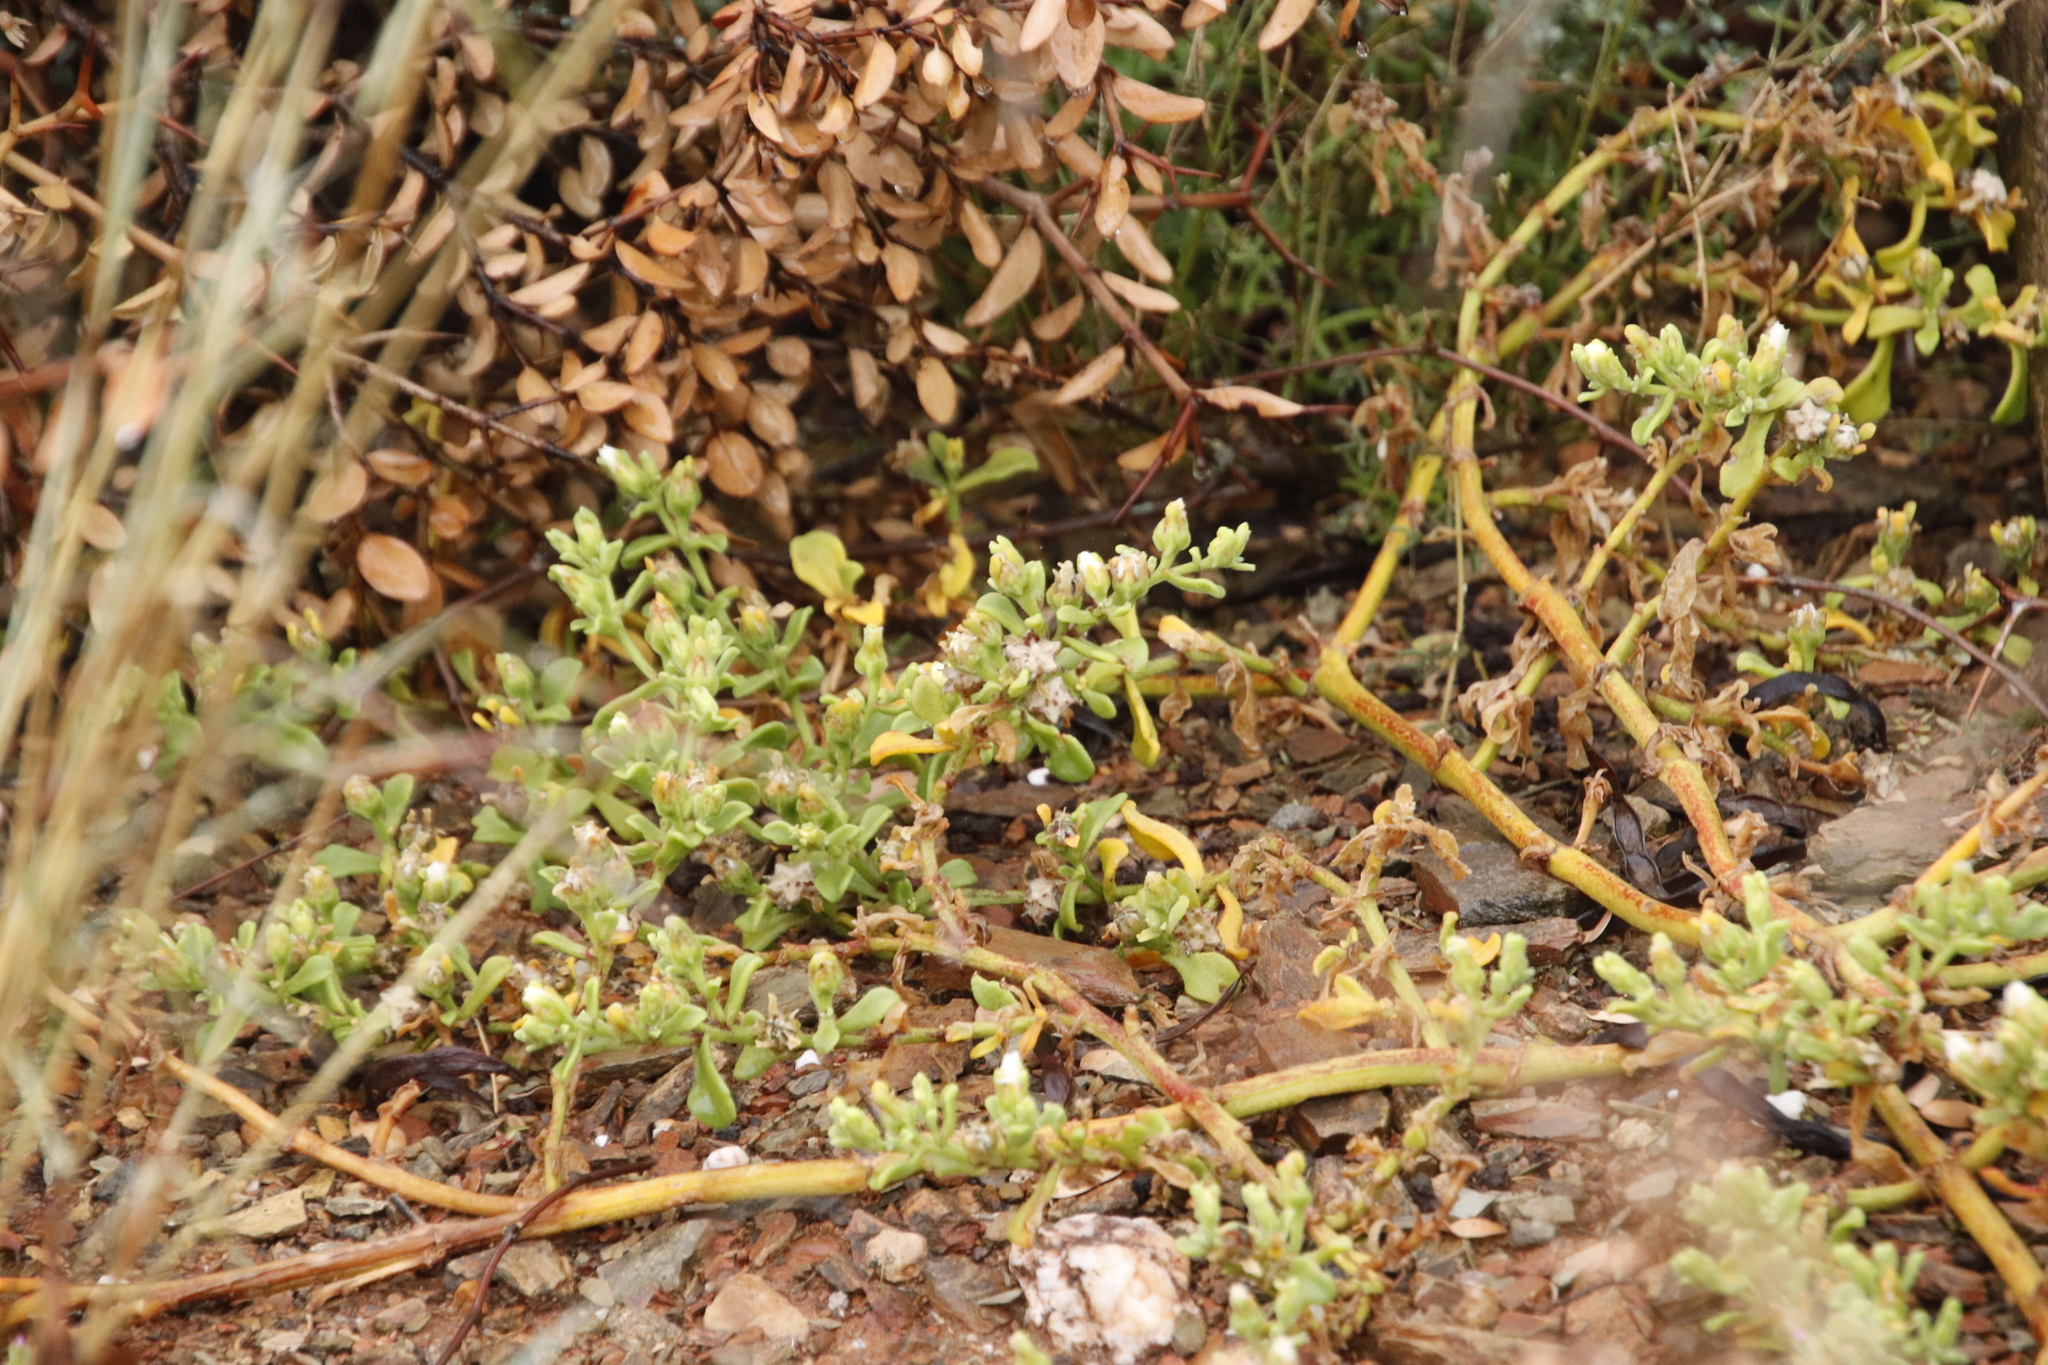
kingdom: Plantae
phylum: Tracheophyta
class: Magnoliopsida
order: Caryophyllales
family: Aizoaceae
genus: Mesembryanthemum
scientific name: Mesembryanthemum aitonis
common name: Angled iceplant
